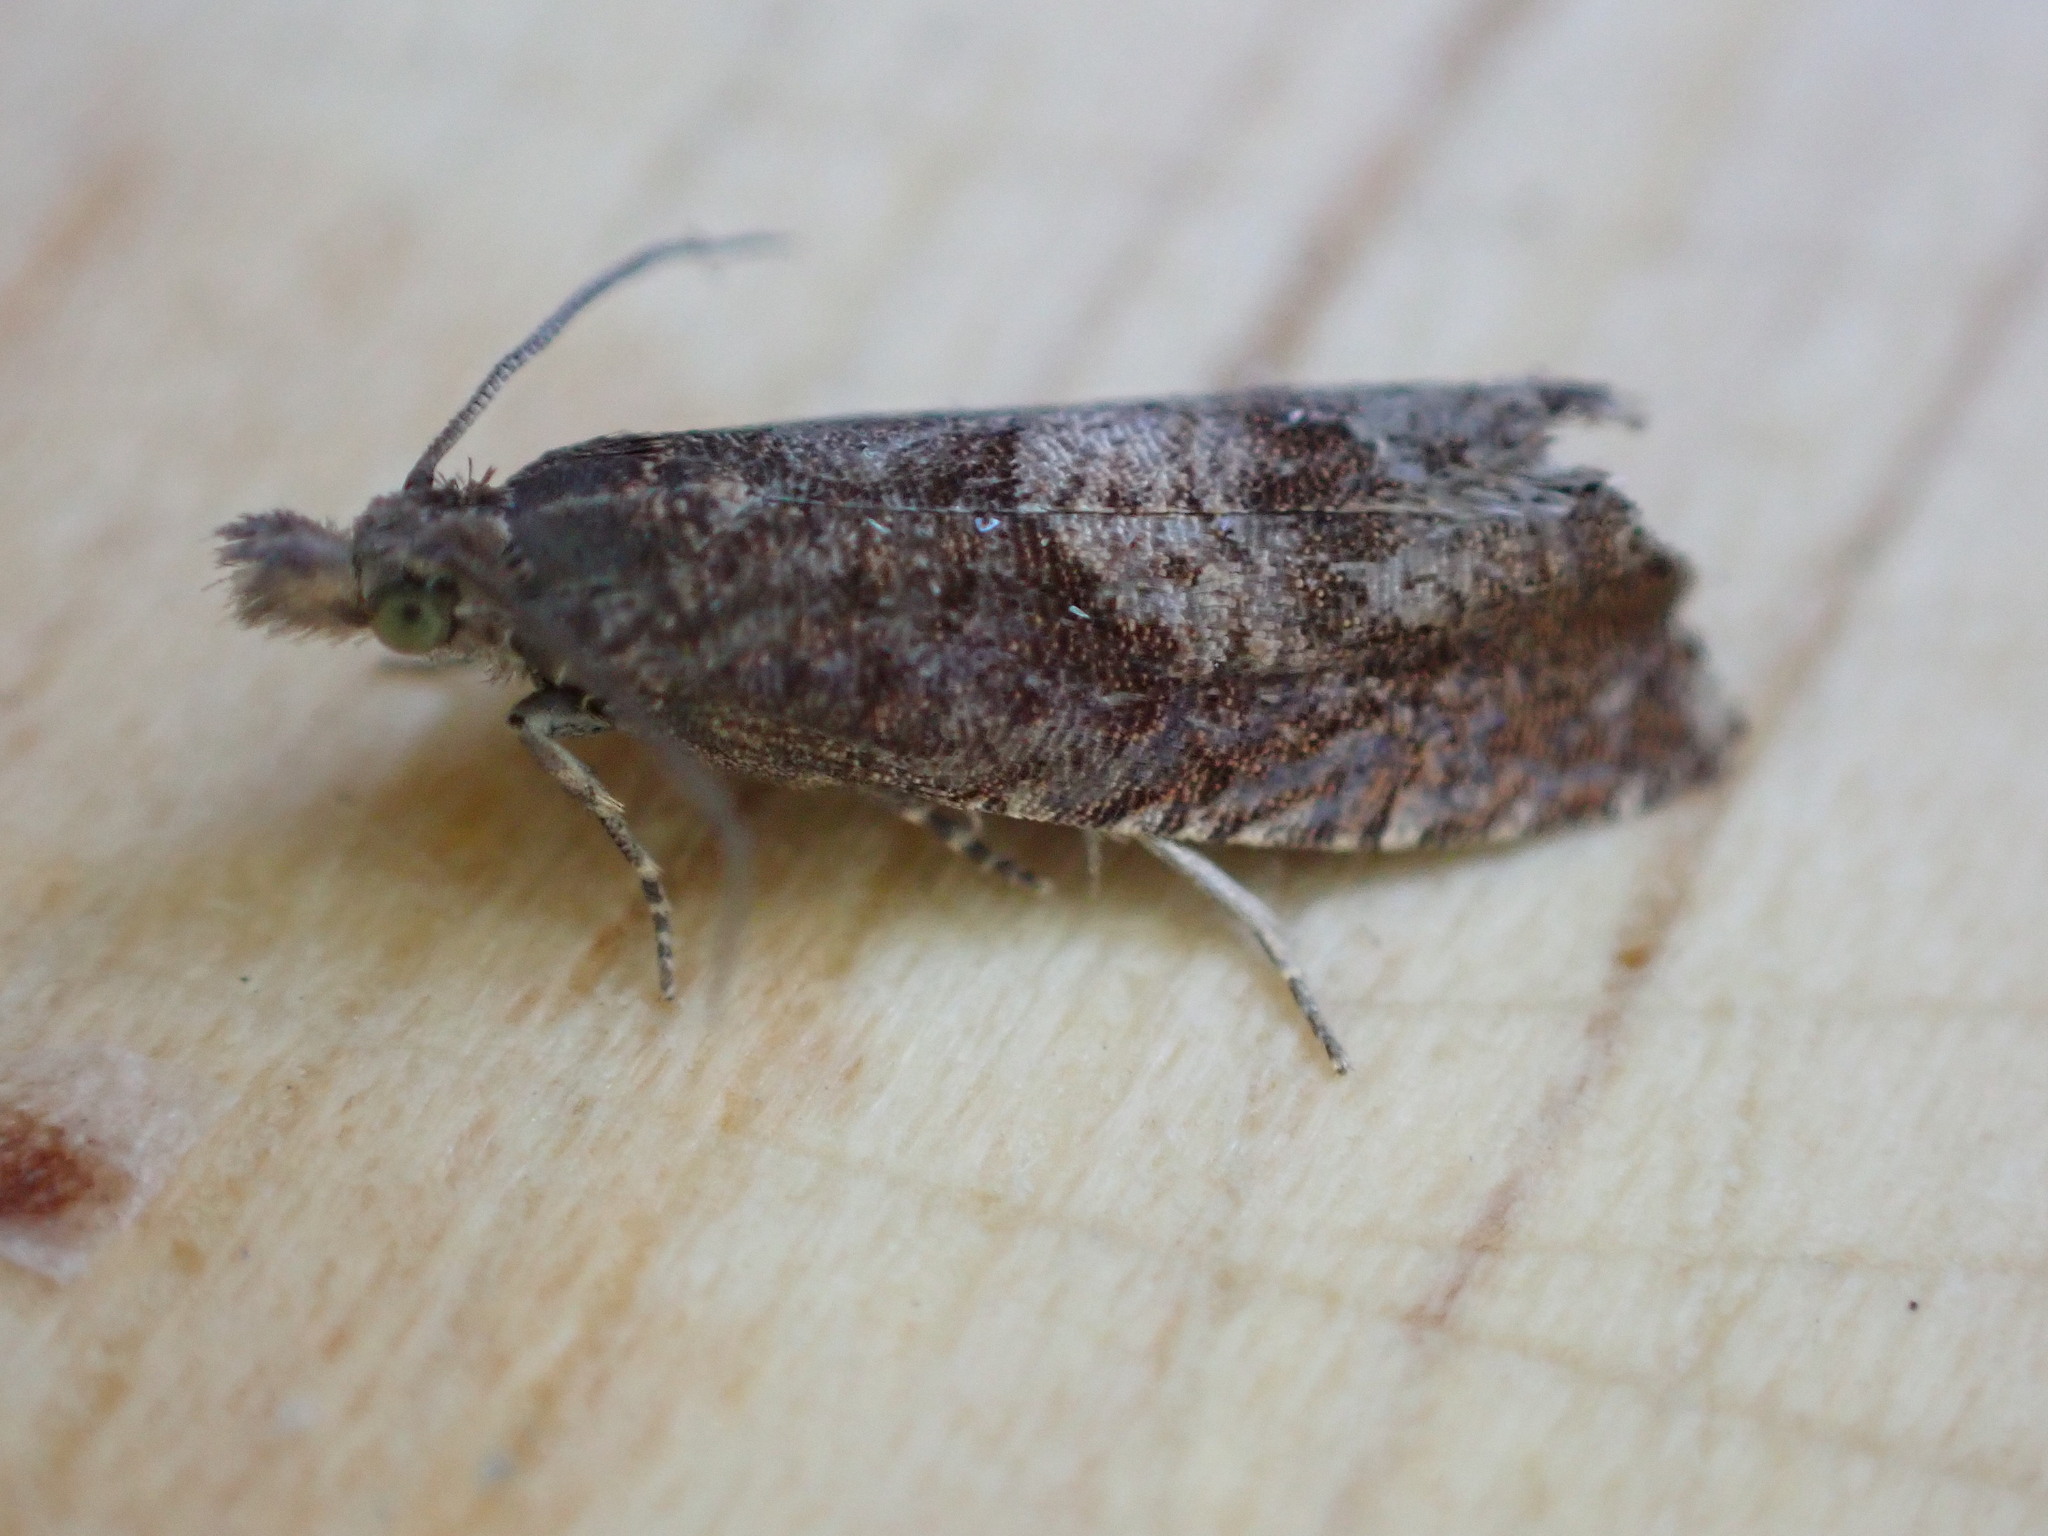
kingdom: Animalia
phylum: Arthropoda
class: Insecta
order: Lepidoptera
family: Tortricidae
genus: Dichrorampha
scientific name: Dichrorampha acuminatana
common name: Sharp-winged drill
